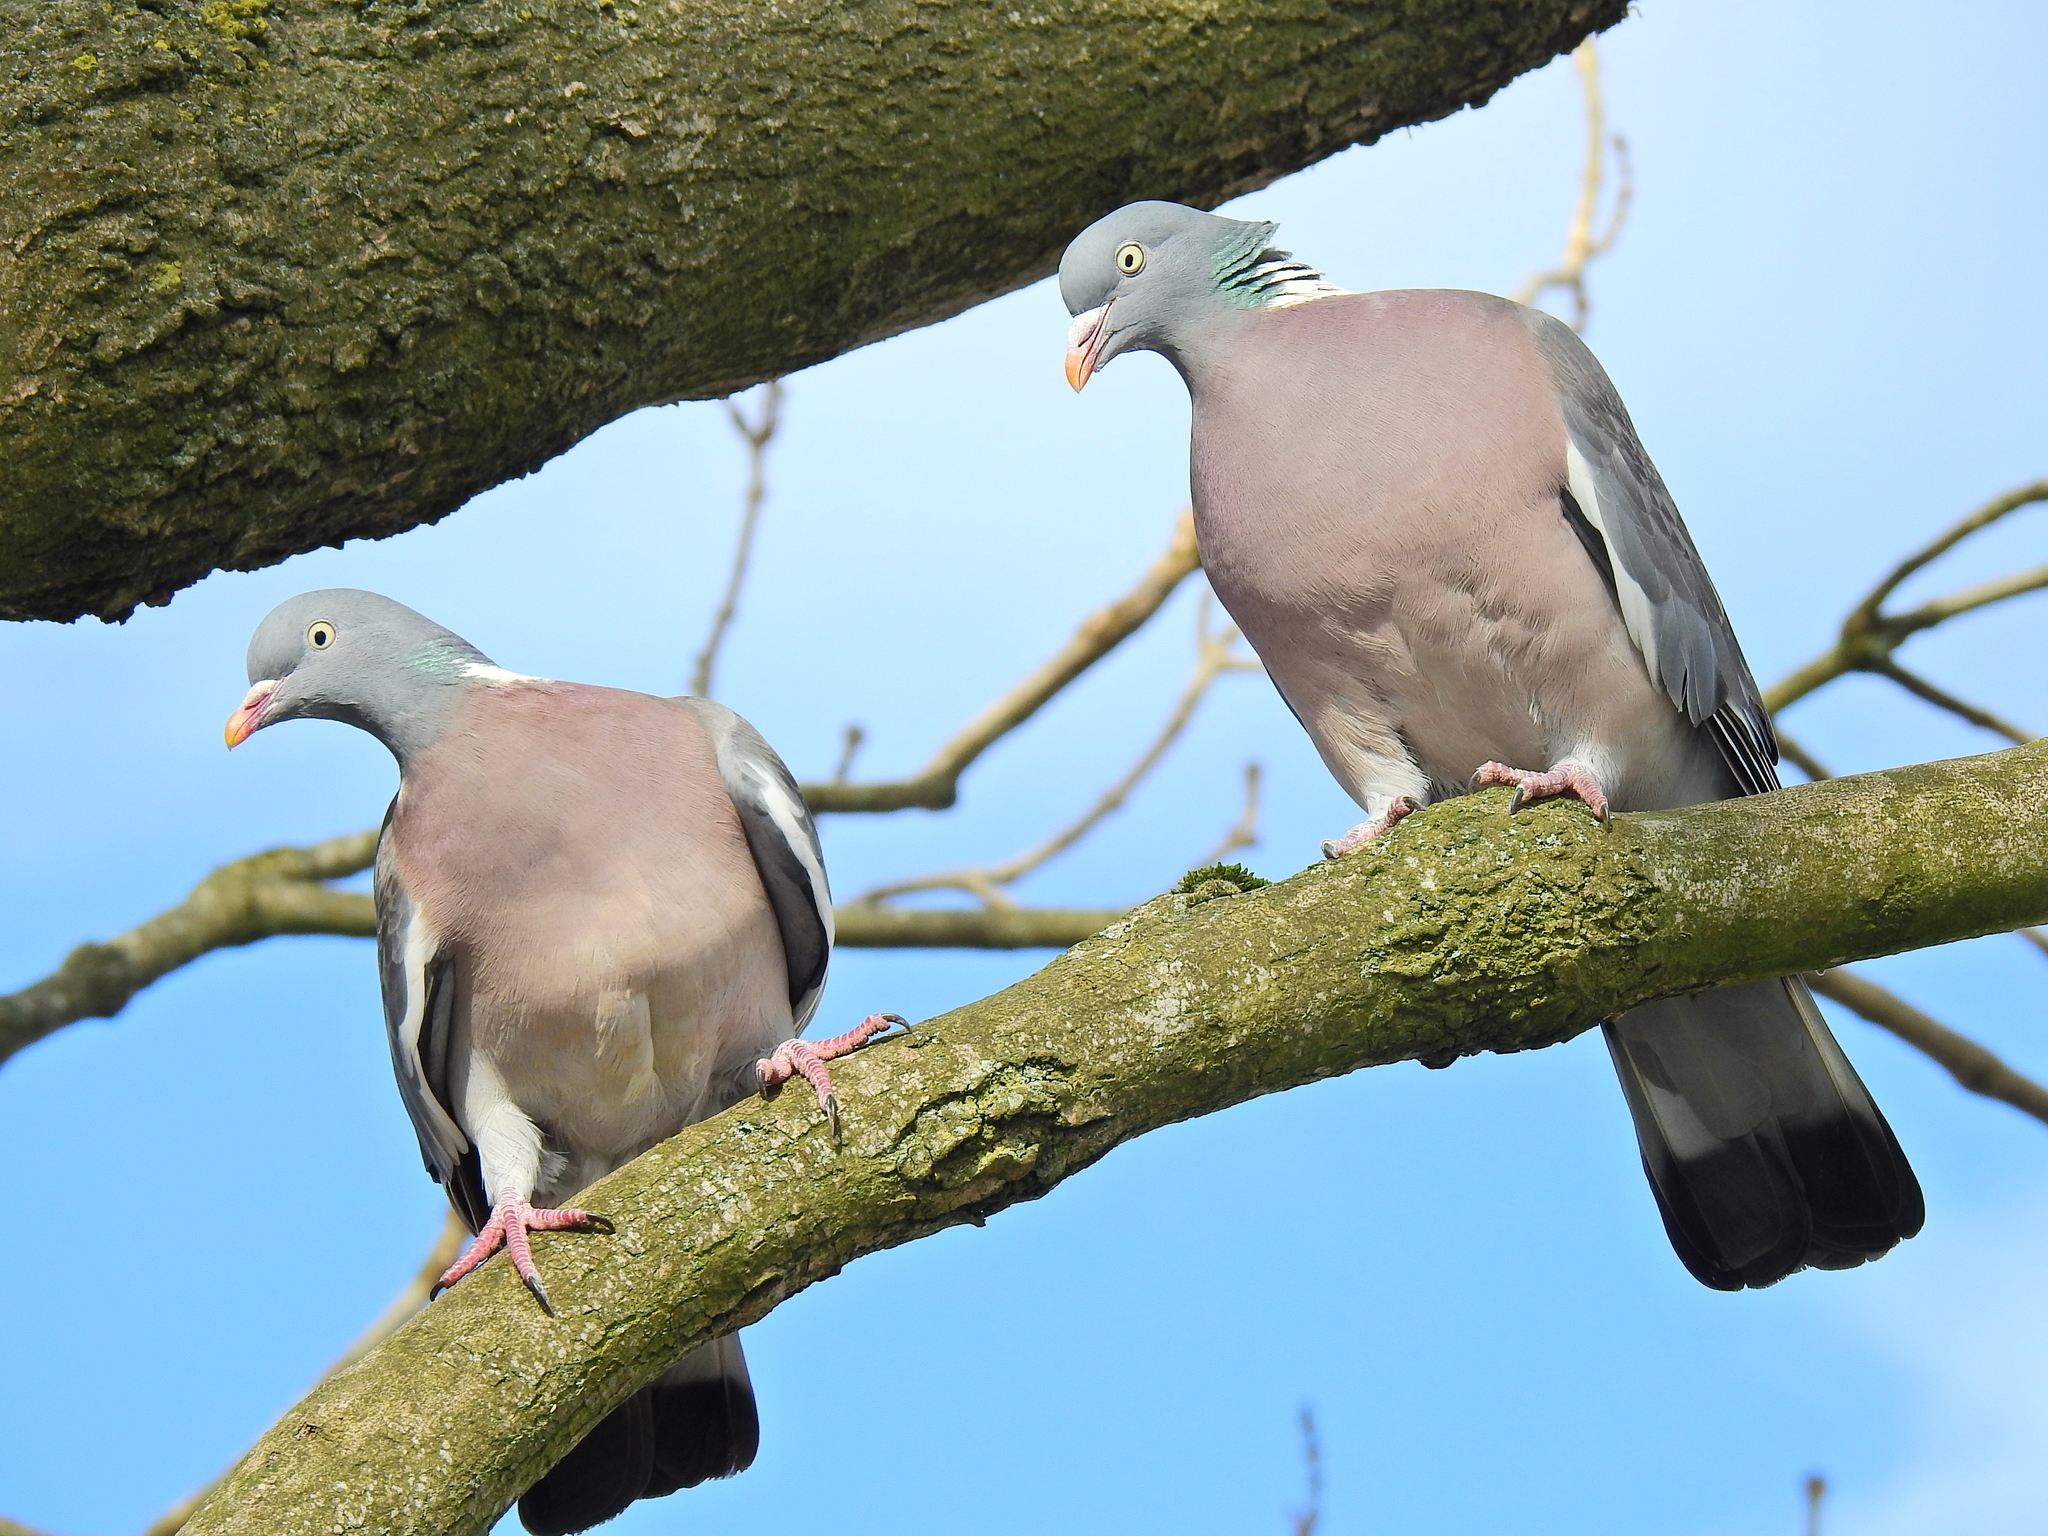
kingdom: Animalia
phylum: Chordata
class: Aves
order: Columbiformes
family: Columbidae
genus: Columba
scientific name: Columba palumbus
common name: Common wood pigeon
